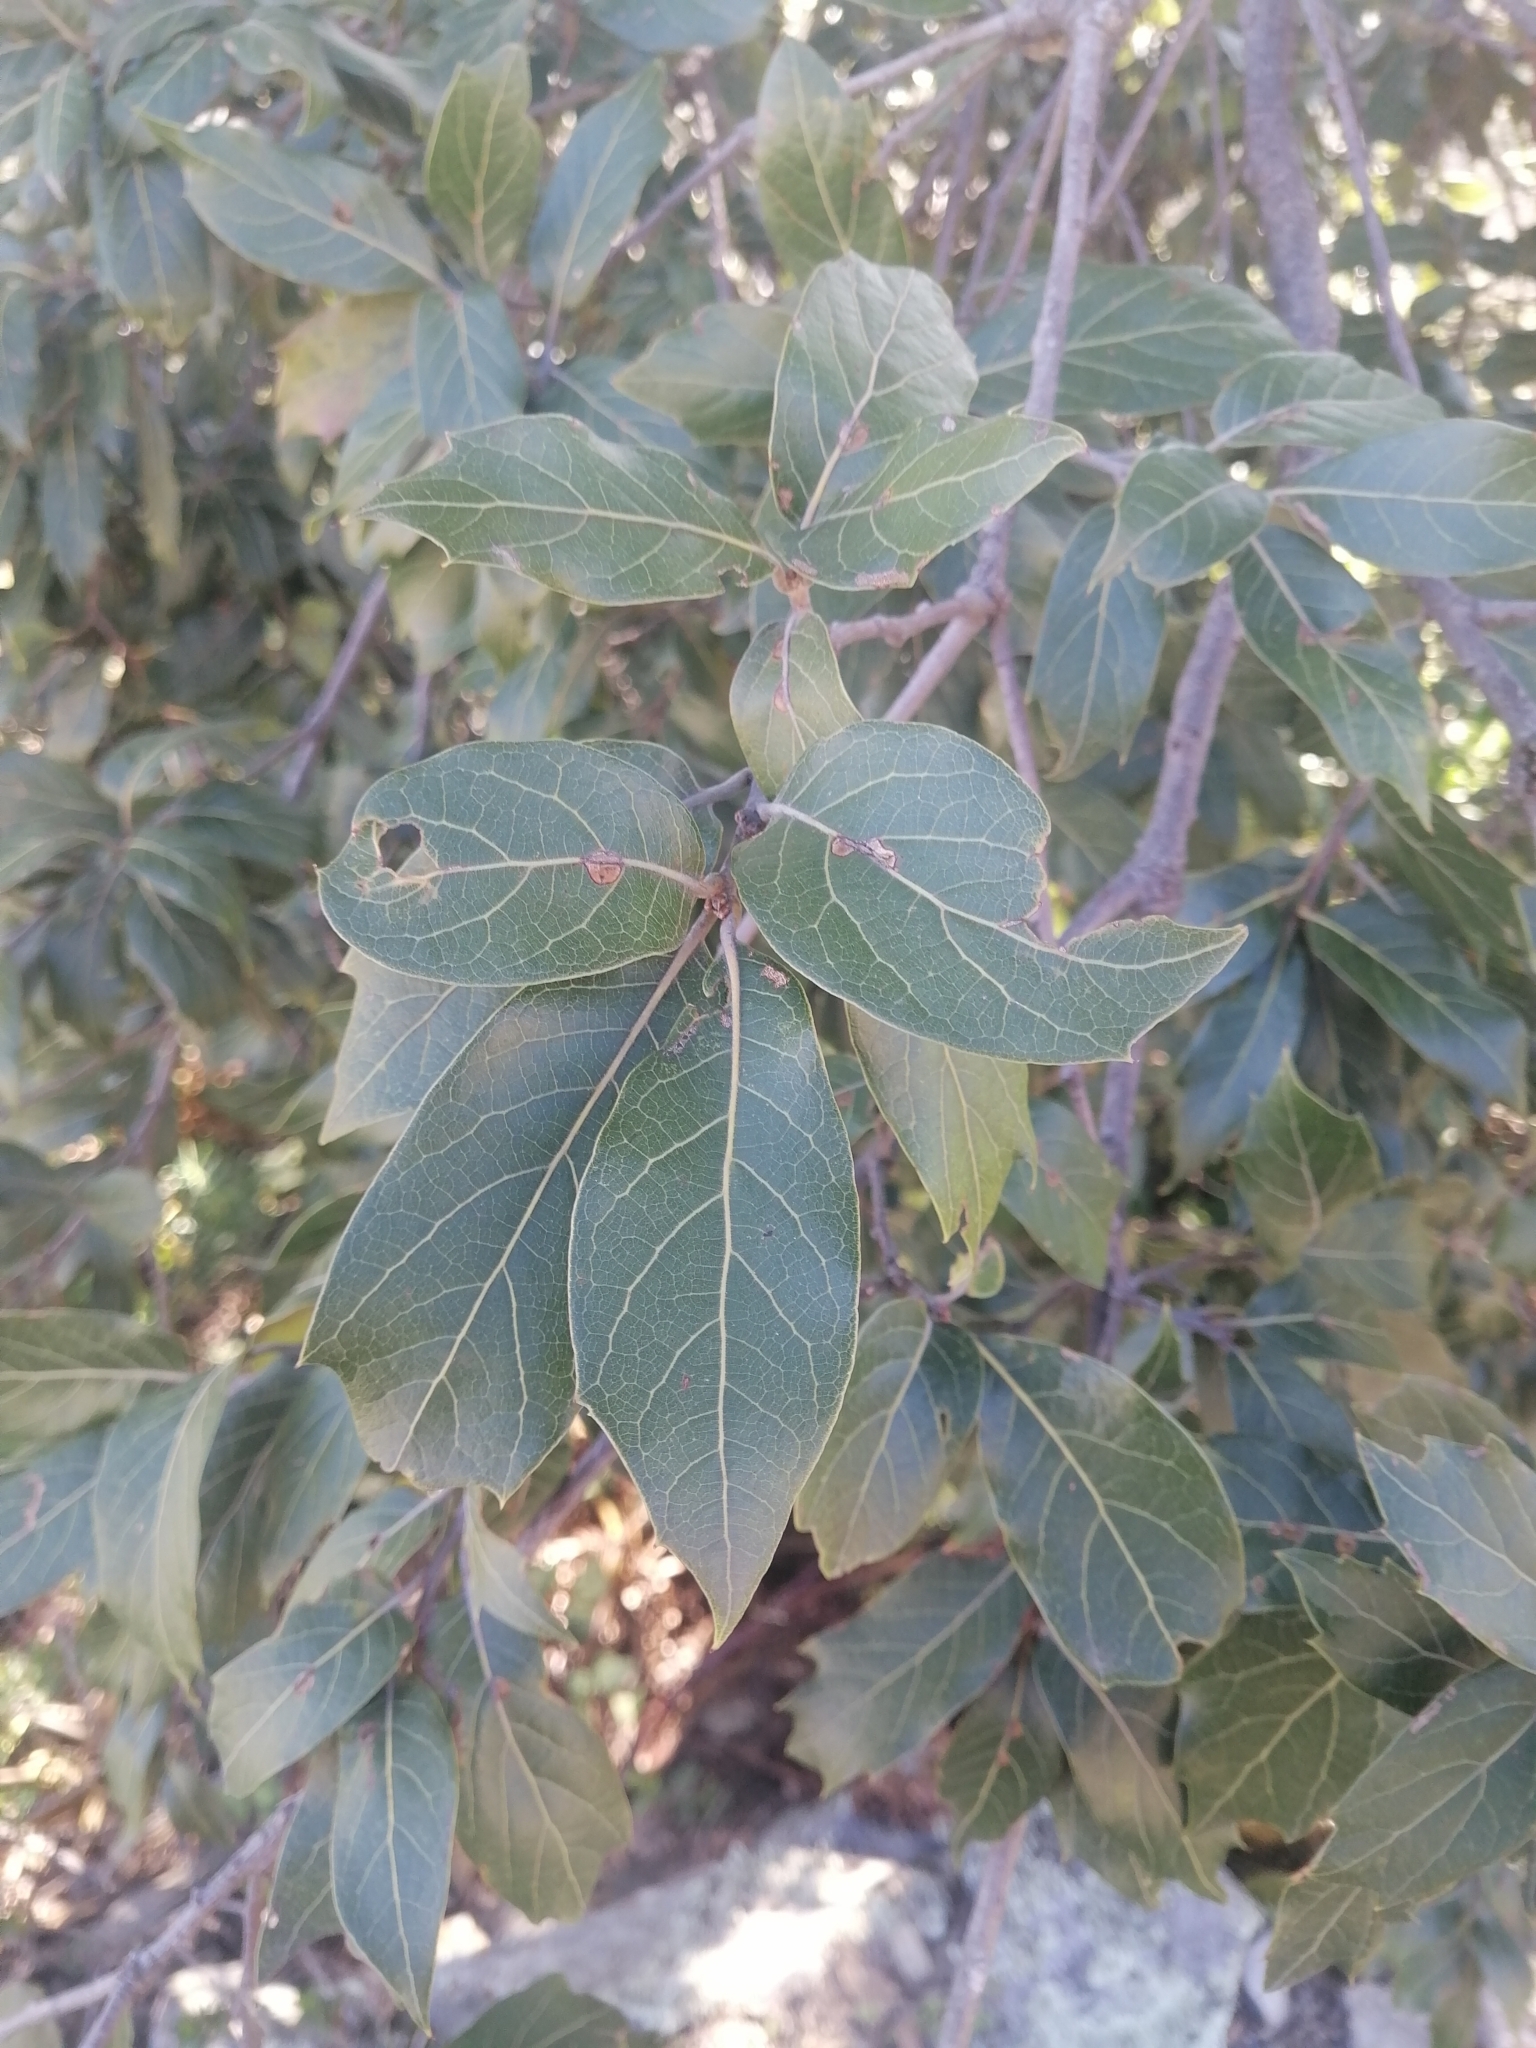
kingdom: Plantae
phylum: Tracheophyta
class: Magnoliopsida
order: Fagales
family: Fagaceae
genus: Quercus
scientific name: Quercus laurina
